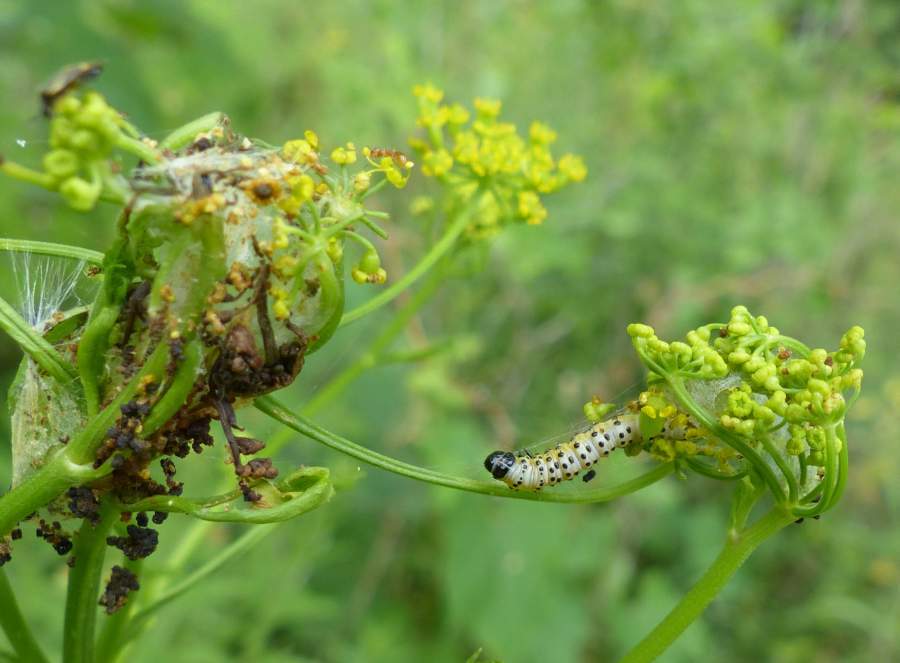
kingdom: Animalia
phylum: Arthropoda
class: Insecta
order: Lepidoptera
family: Depressariidae
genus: Depressaria
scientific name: Depressaria radiella
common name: Parsnip moth
